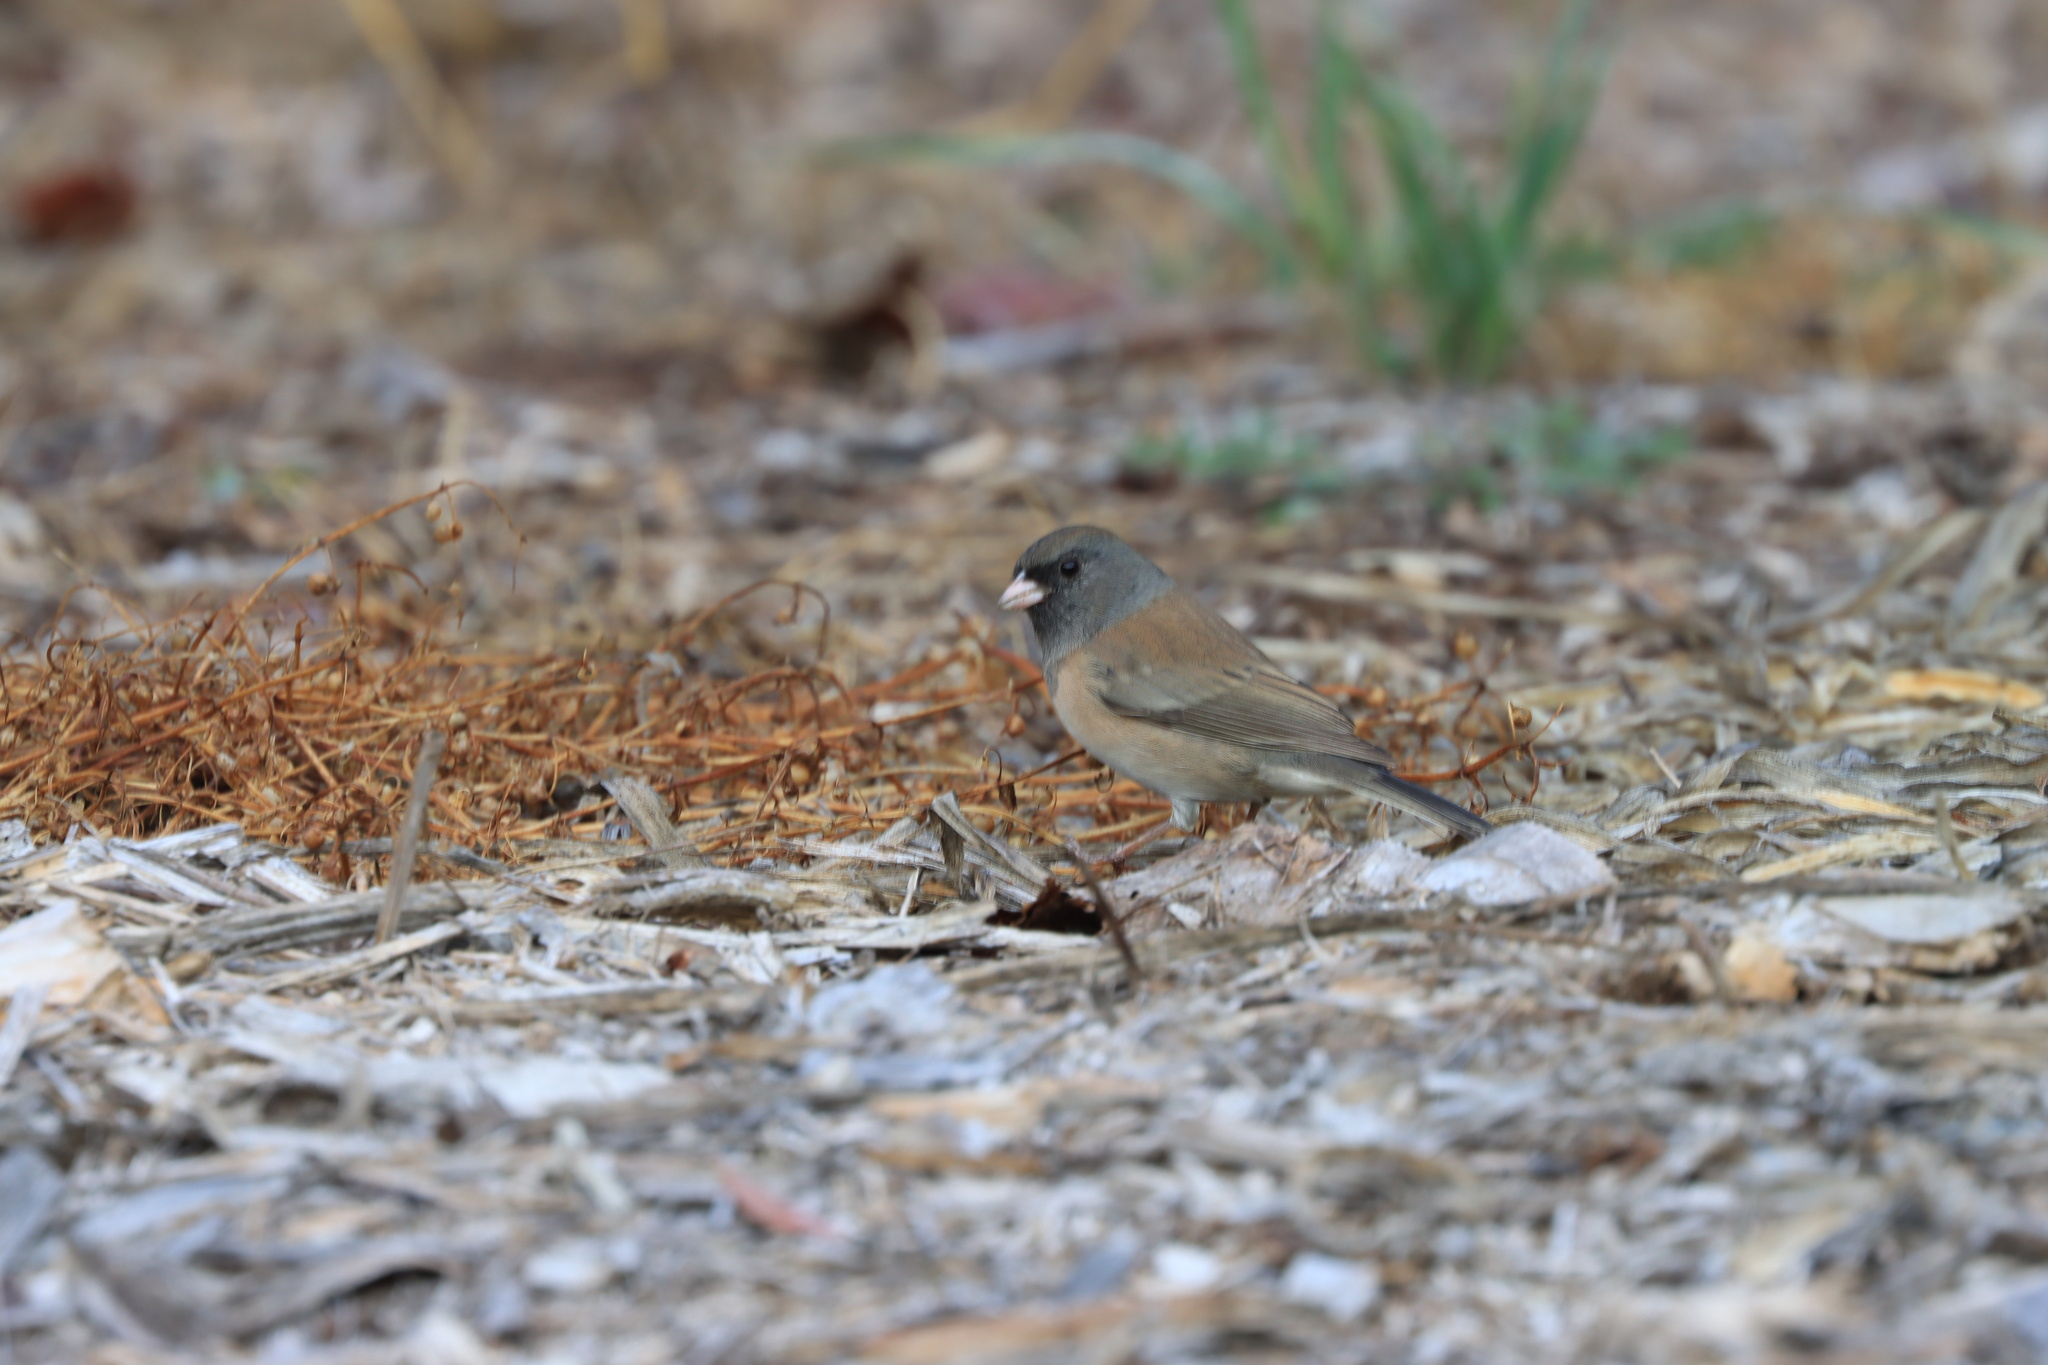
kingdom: Animalia
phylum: Chordata
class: Aves
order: Passeriformes
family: Passerellidae
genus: Junco
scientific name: Junco hyemalis
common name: Dark-eyed junco
